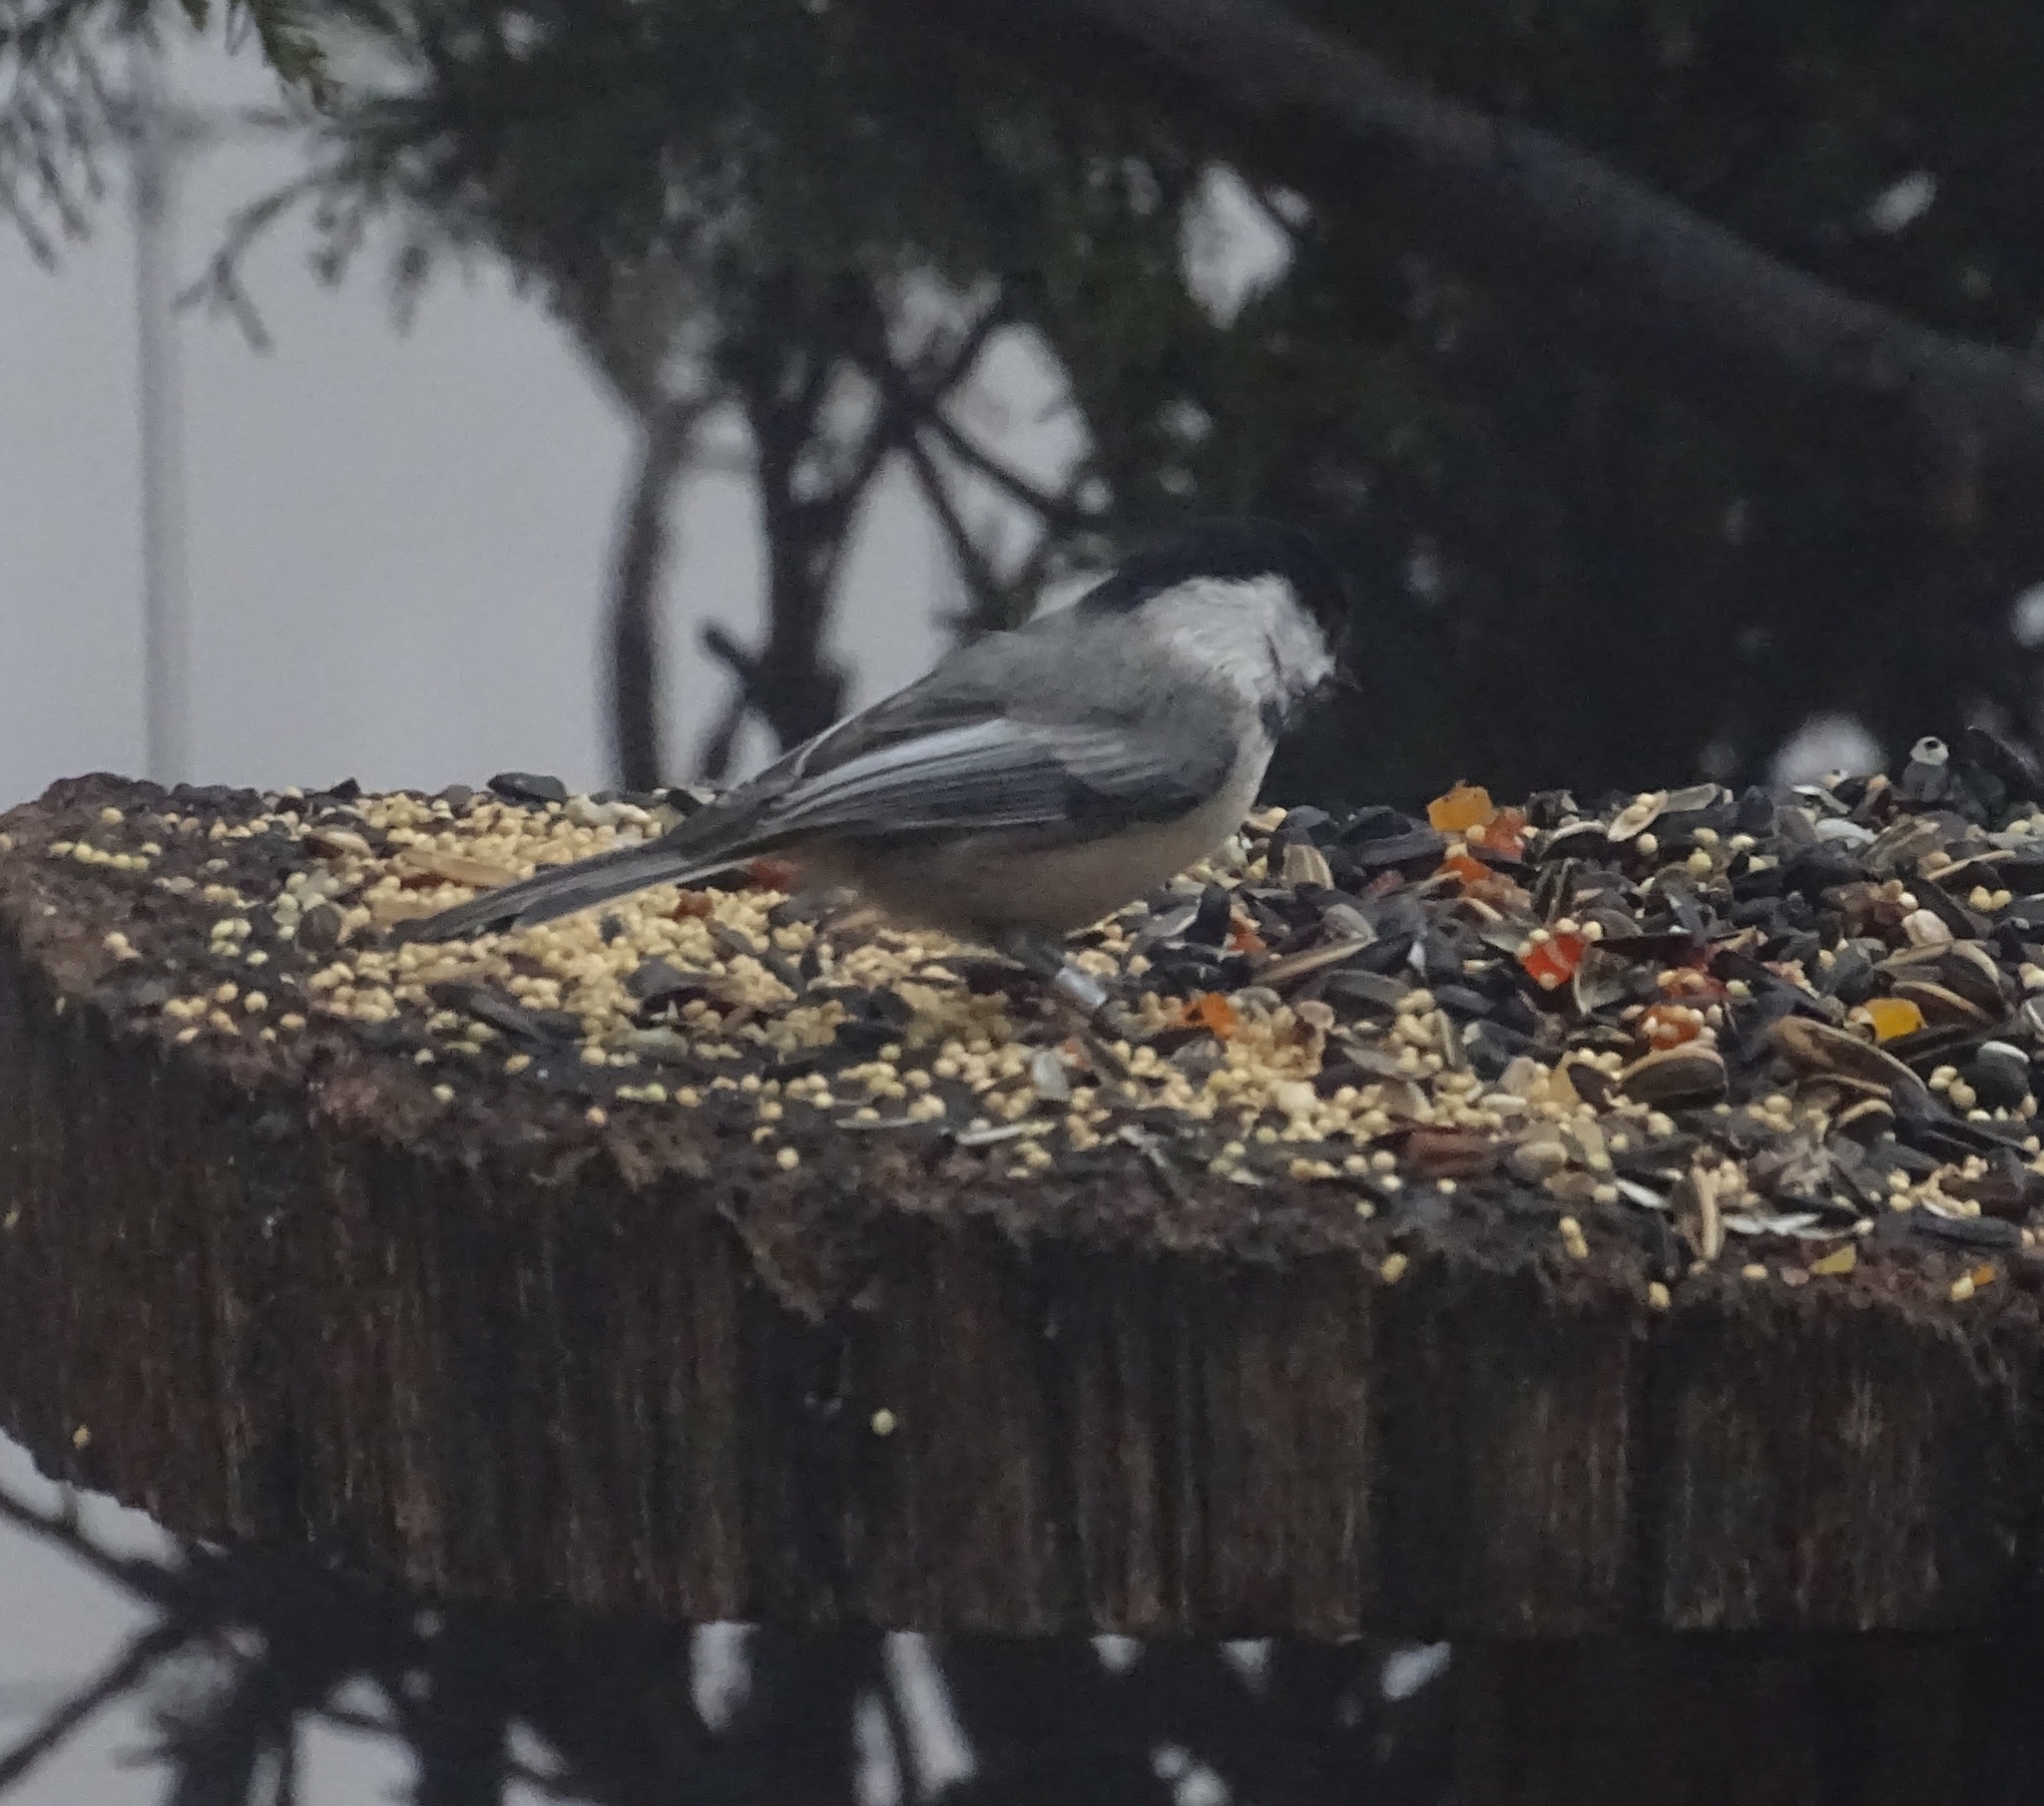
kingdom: Animalia
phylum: Chordata
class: Aves
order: Passeriformes
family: Paridae
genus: Poecile
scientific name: Poecile atricapillus
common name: Black-capped chickadee
